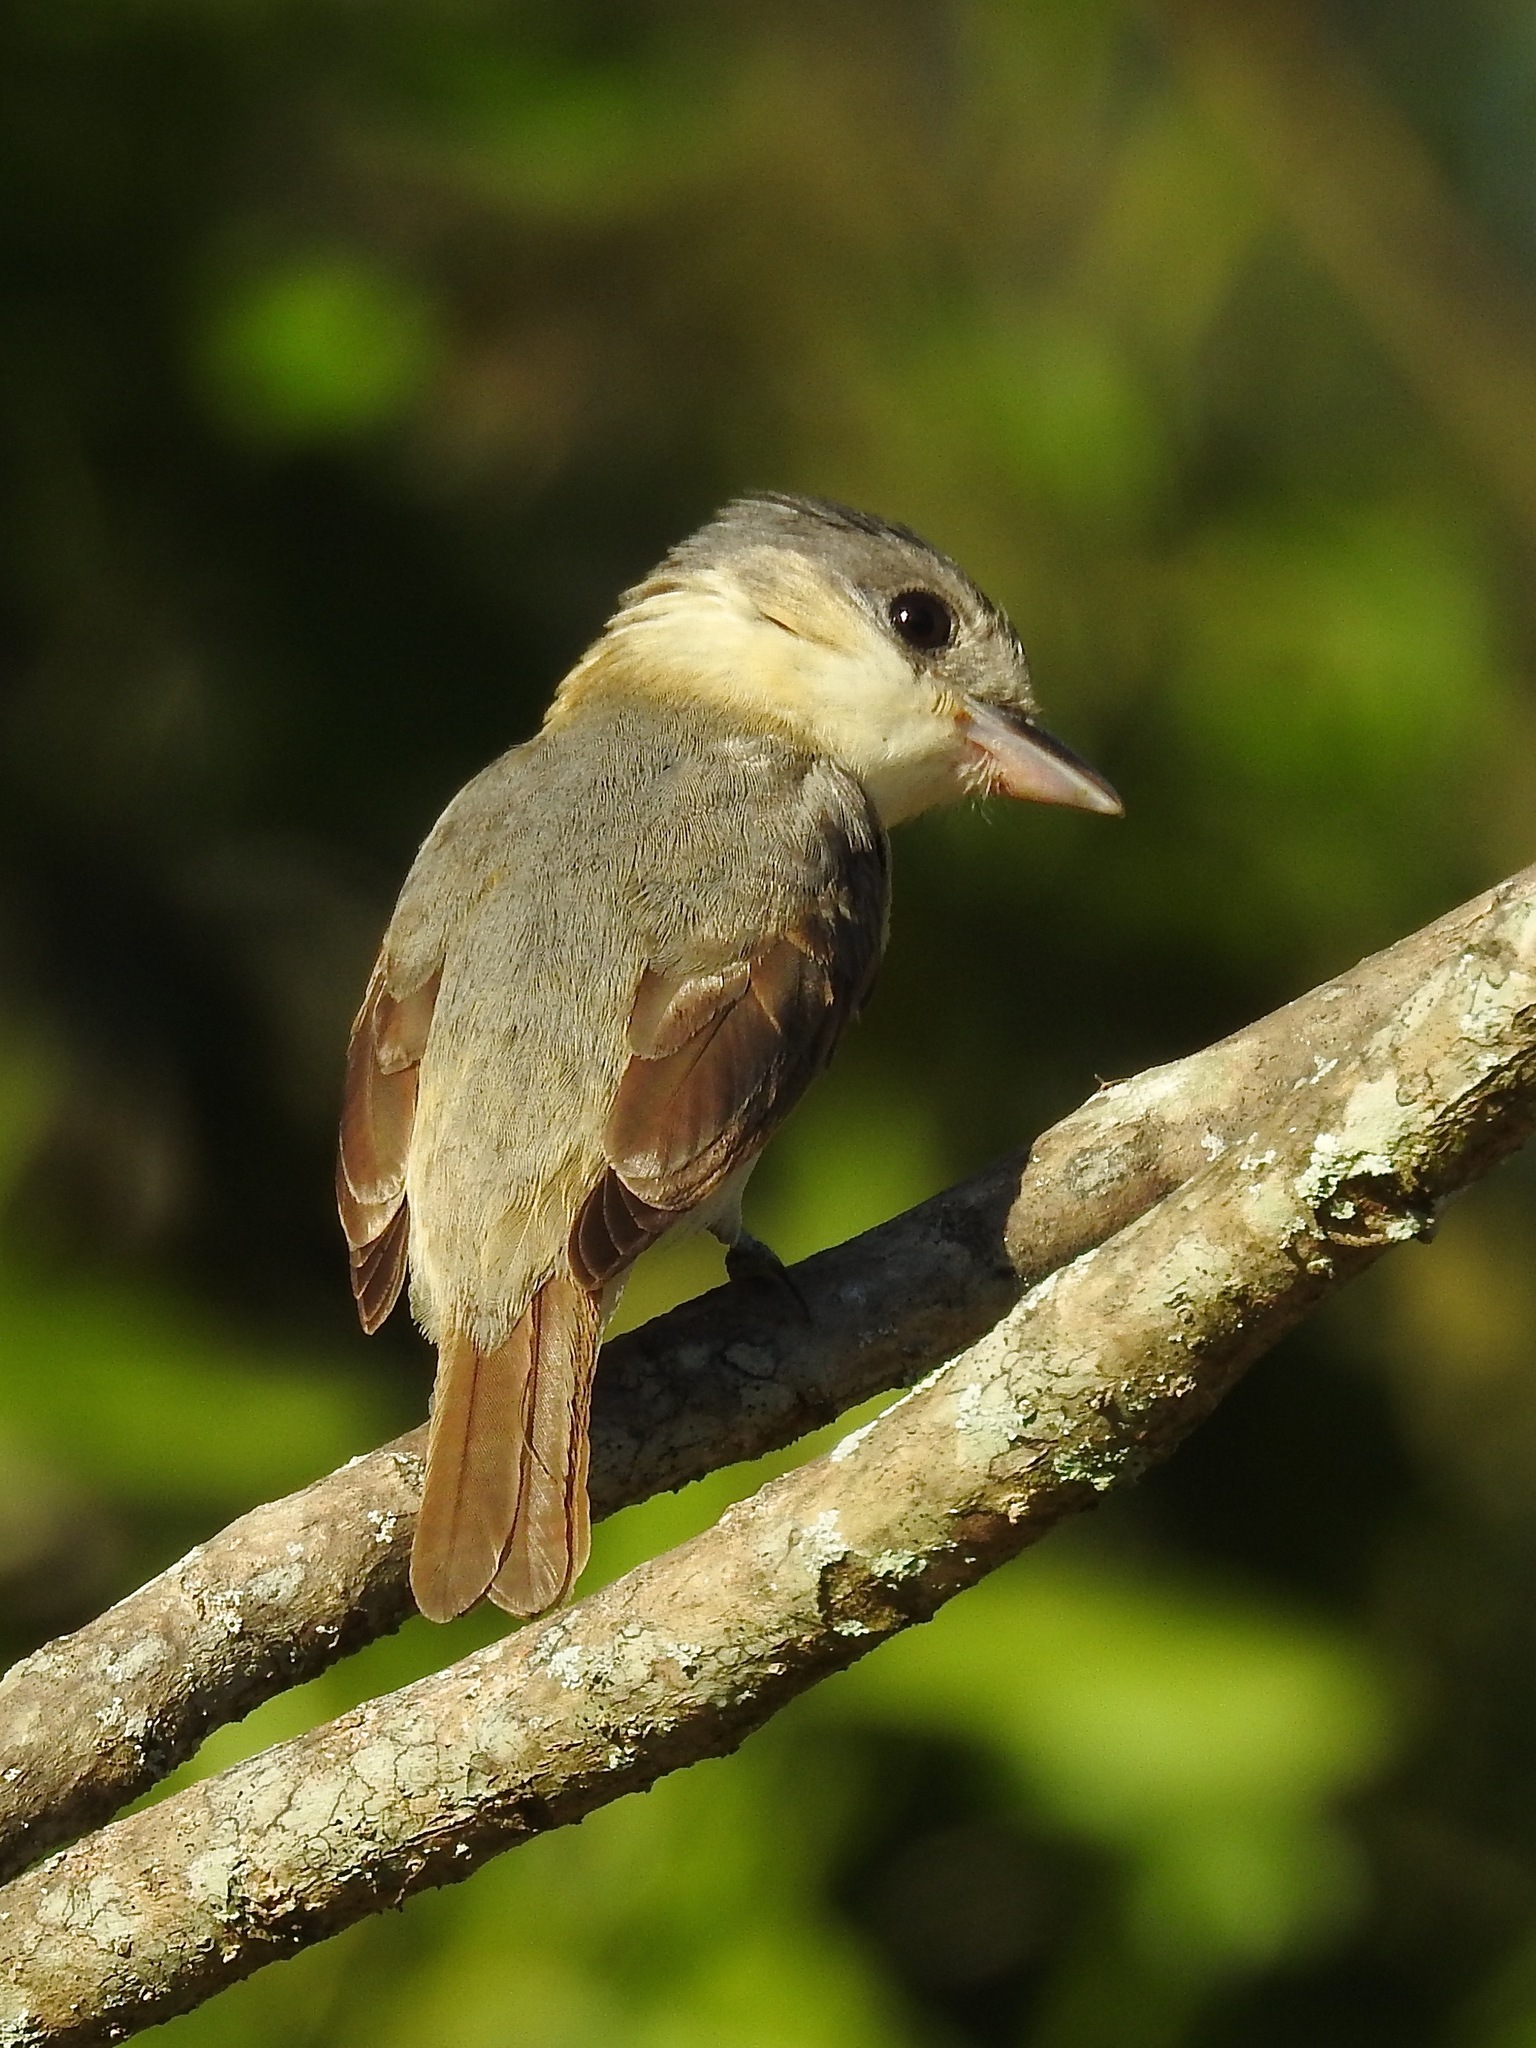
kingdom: Animalia
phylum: Chordata
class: Aves
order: Passeriformes
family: Cotingidae
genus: Pachyramphus
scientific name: Pachyramphus aglaiae
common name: Rose-throated becard
